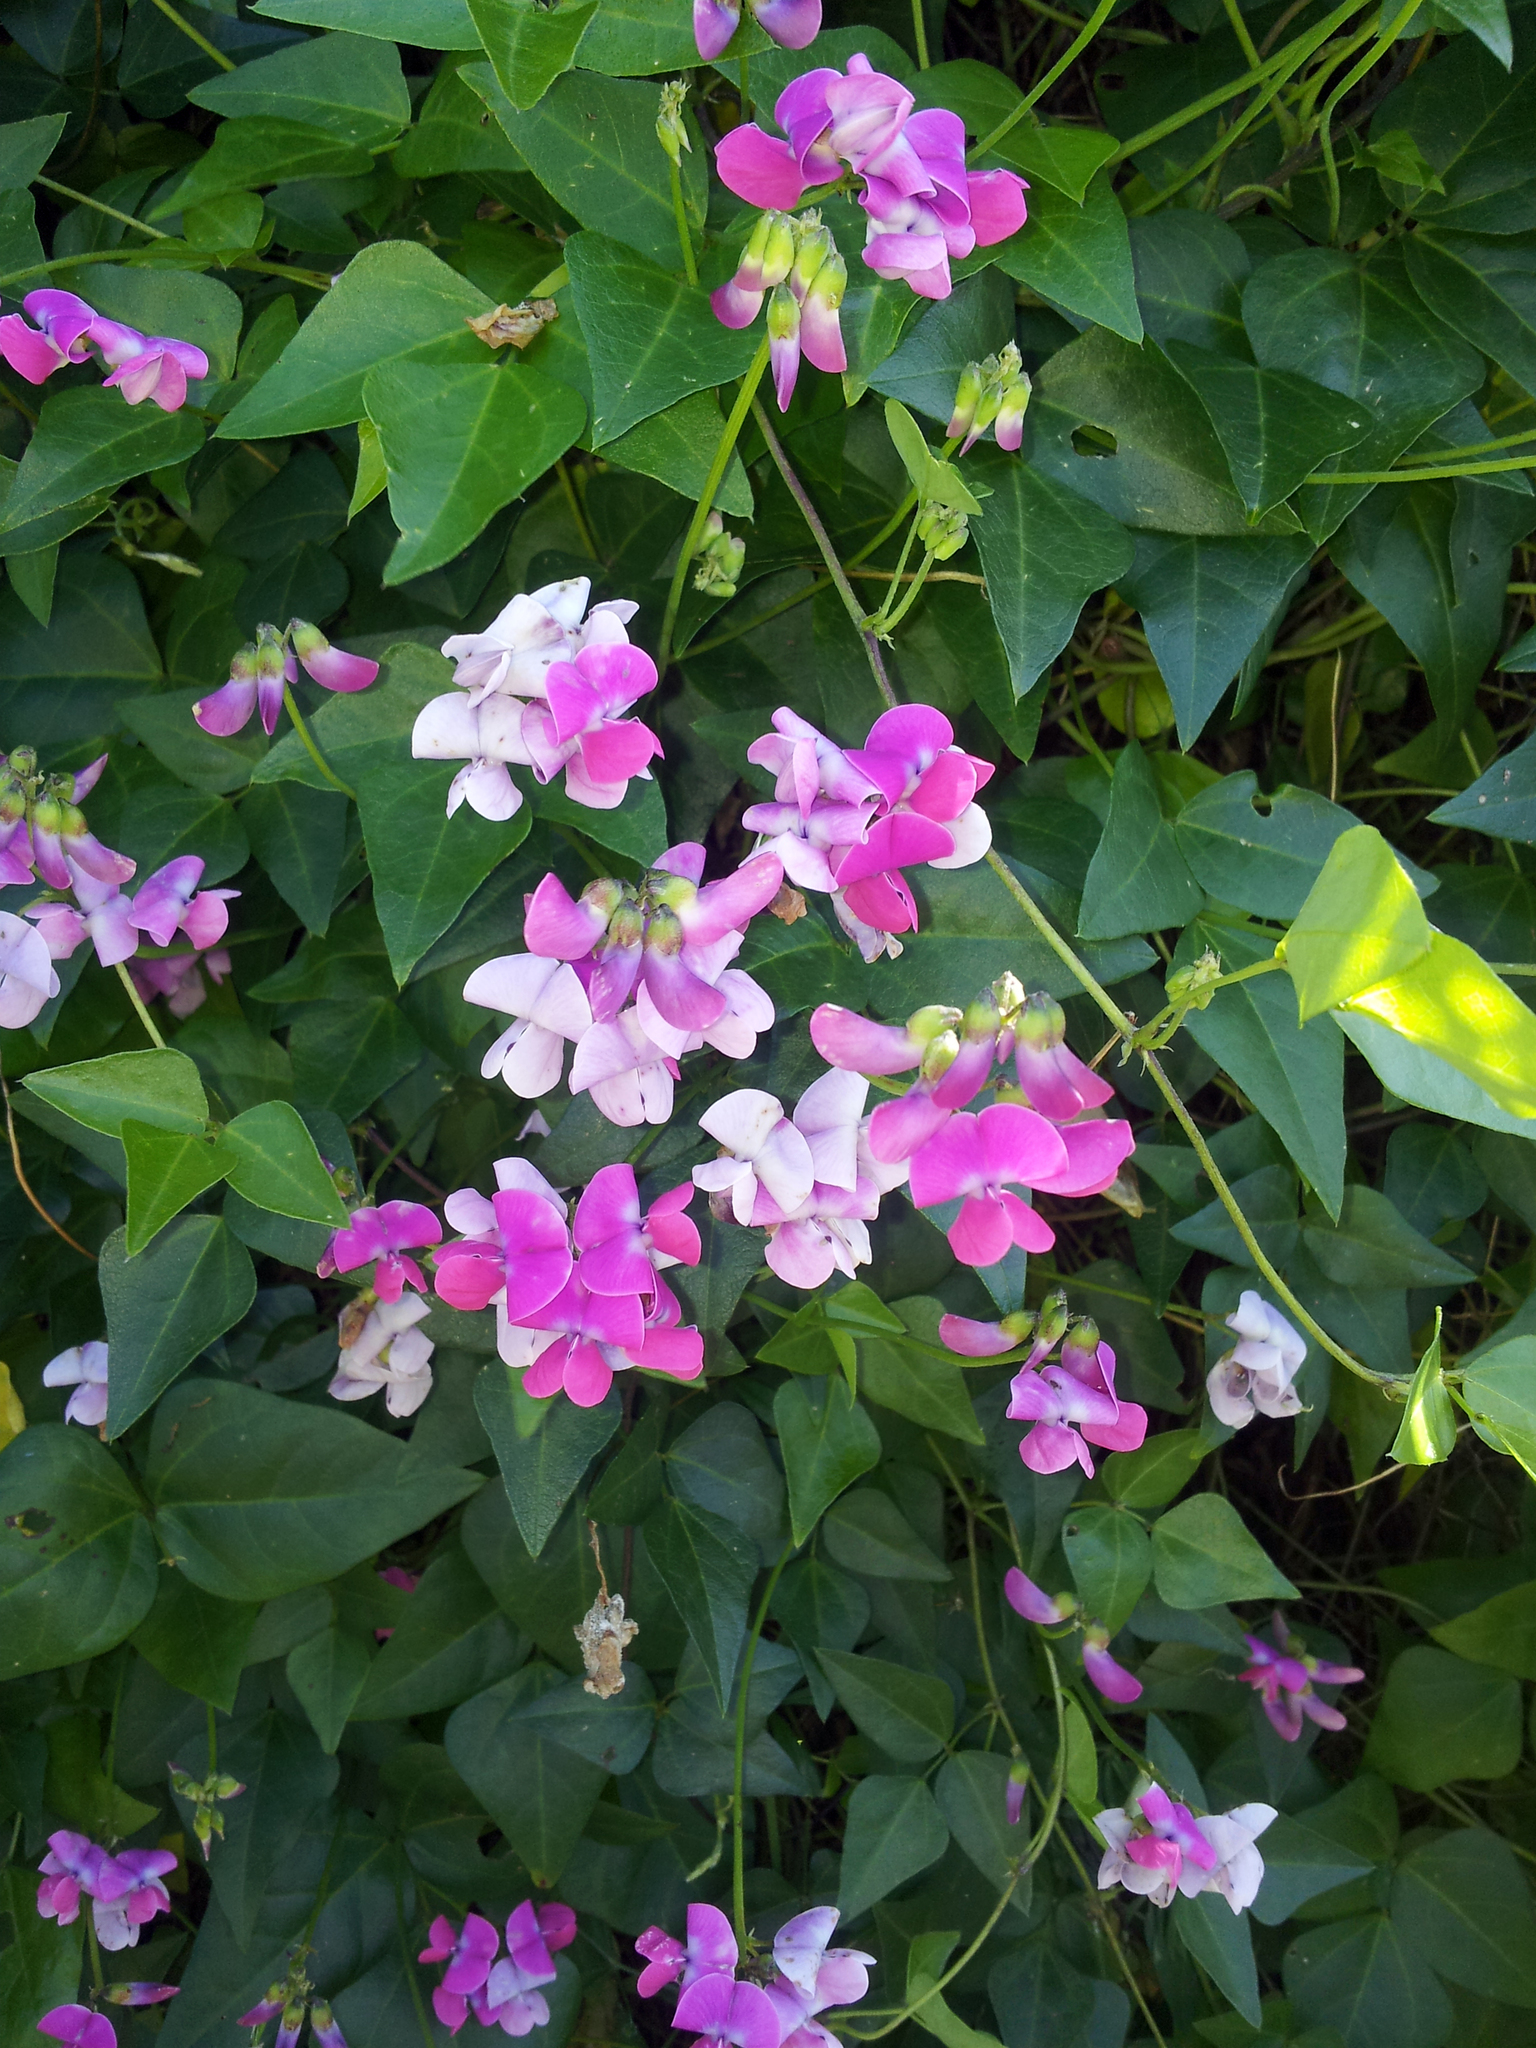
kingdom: Plantae
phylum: Tracheophyta
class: Magnoliopsida
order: Fabales
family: Fabaceae
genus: Dipogon
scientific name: Dipogon lignosus
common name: Okie bean
